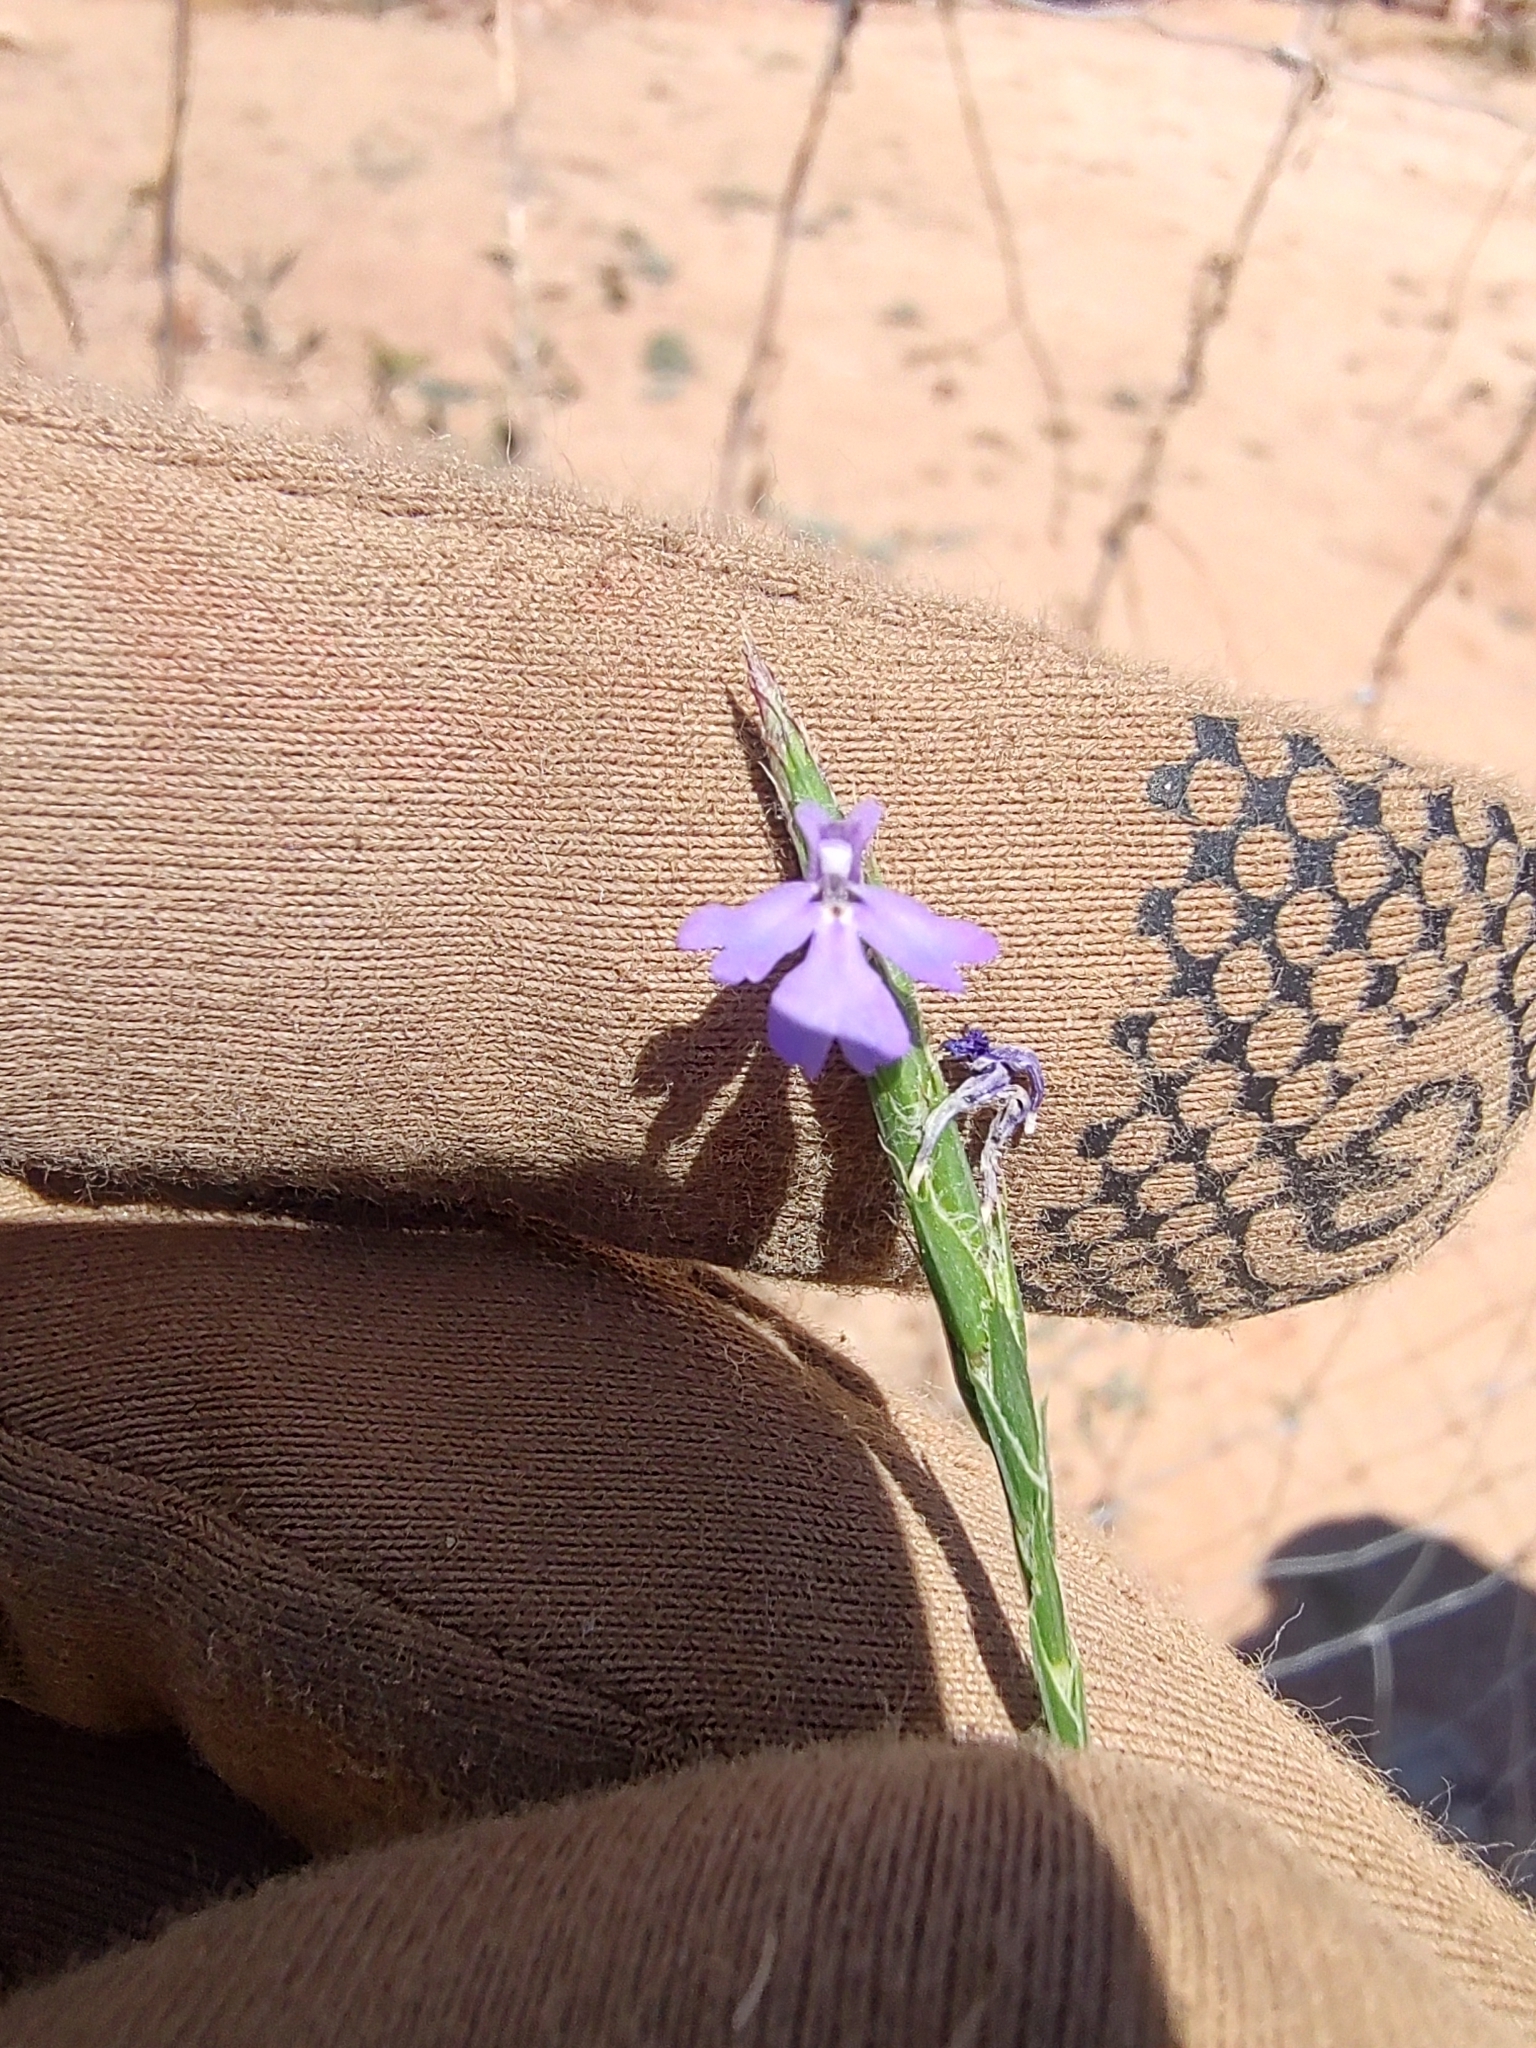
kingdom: Plantae
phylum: Tracheophyta
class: Magnoliopsida
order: Lamiales
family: Acanthaceae
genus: Elytraria
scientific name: Elytraria imbricata
